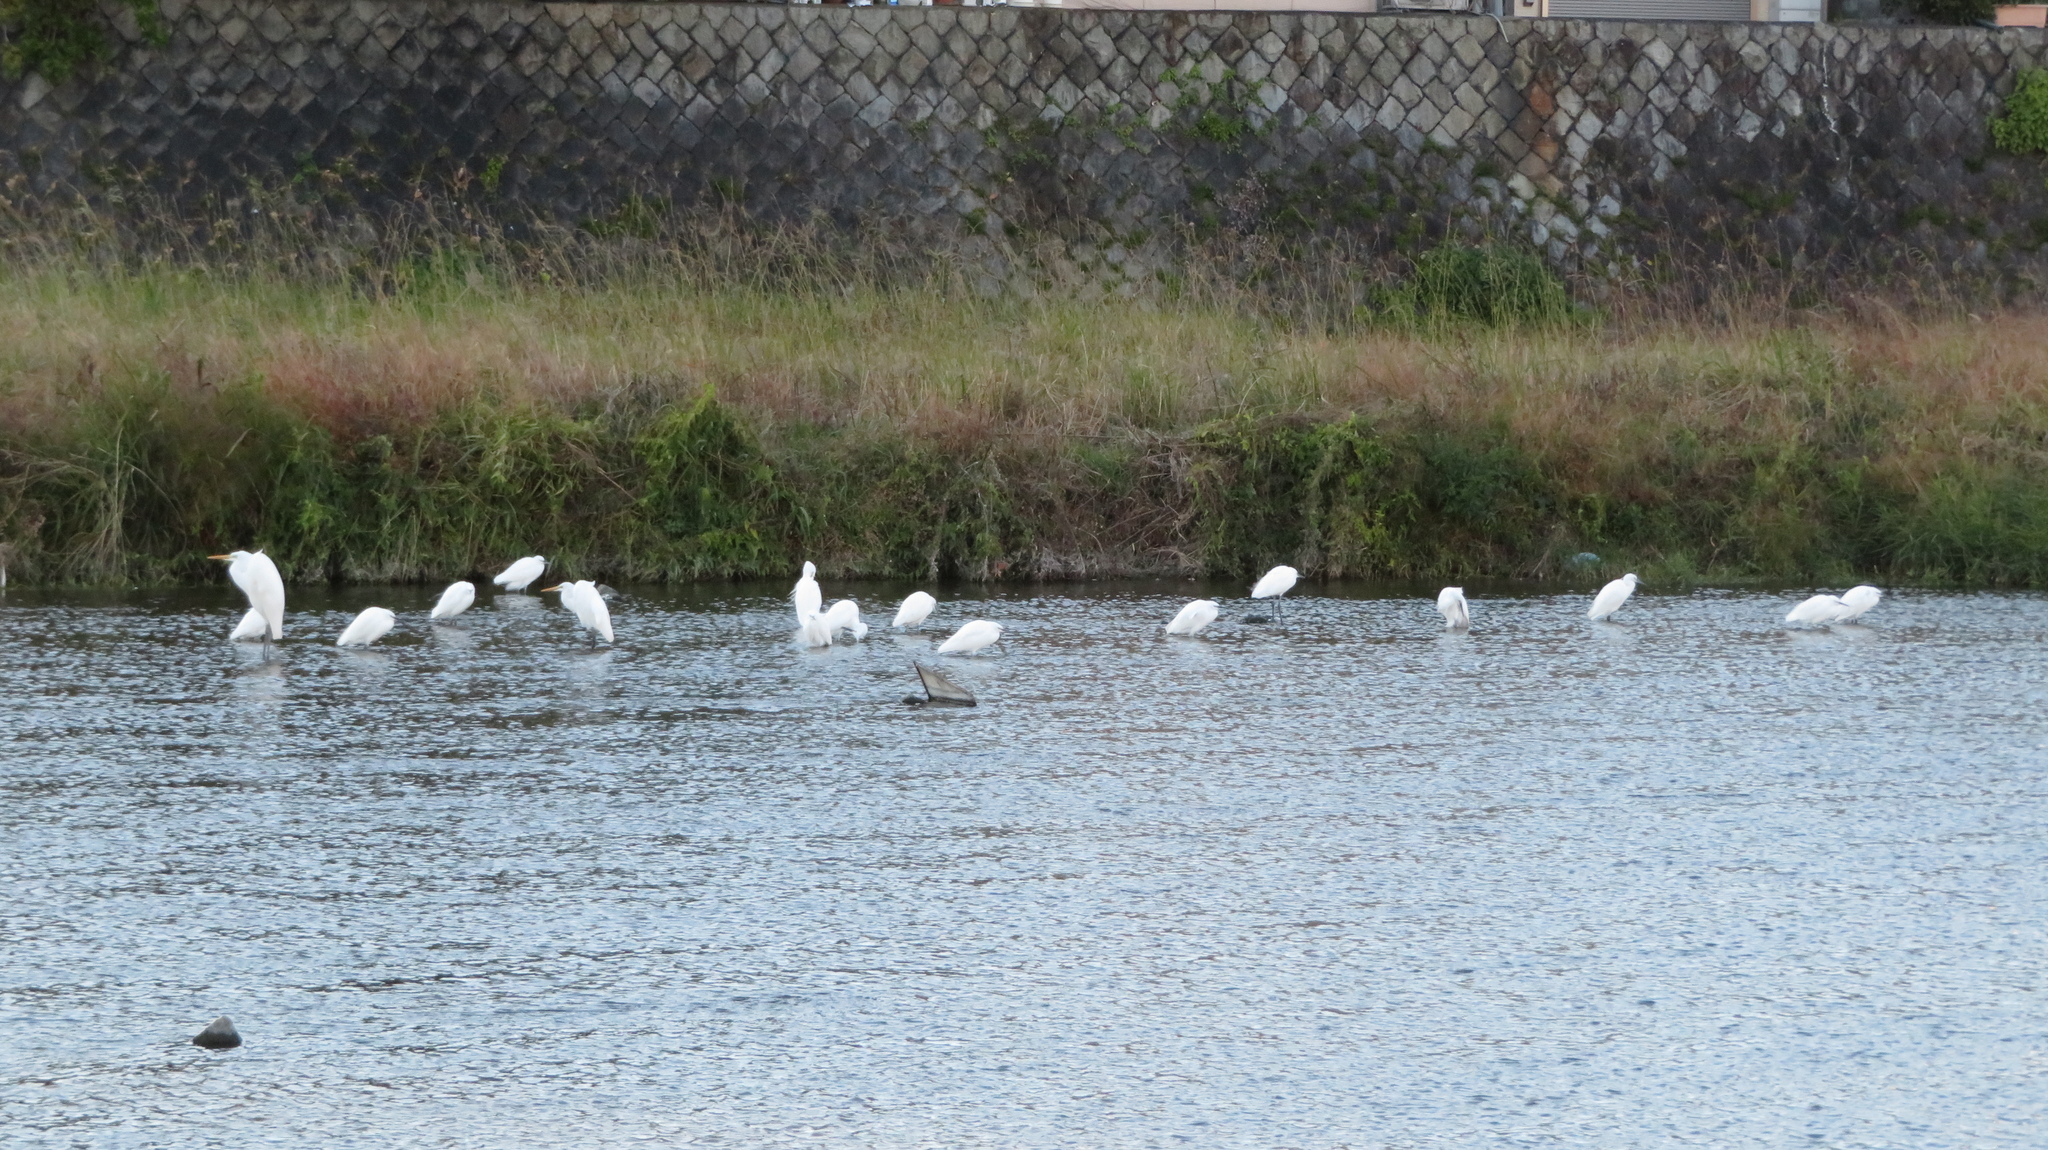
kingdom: Animalia
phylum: Chordata
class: Aves
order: Pelecaniformes
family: Ardeidae
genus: Ardea
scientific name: Ardea alba
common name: Great egret
